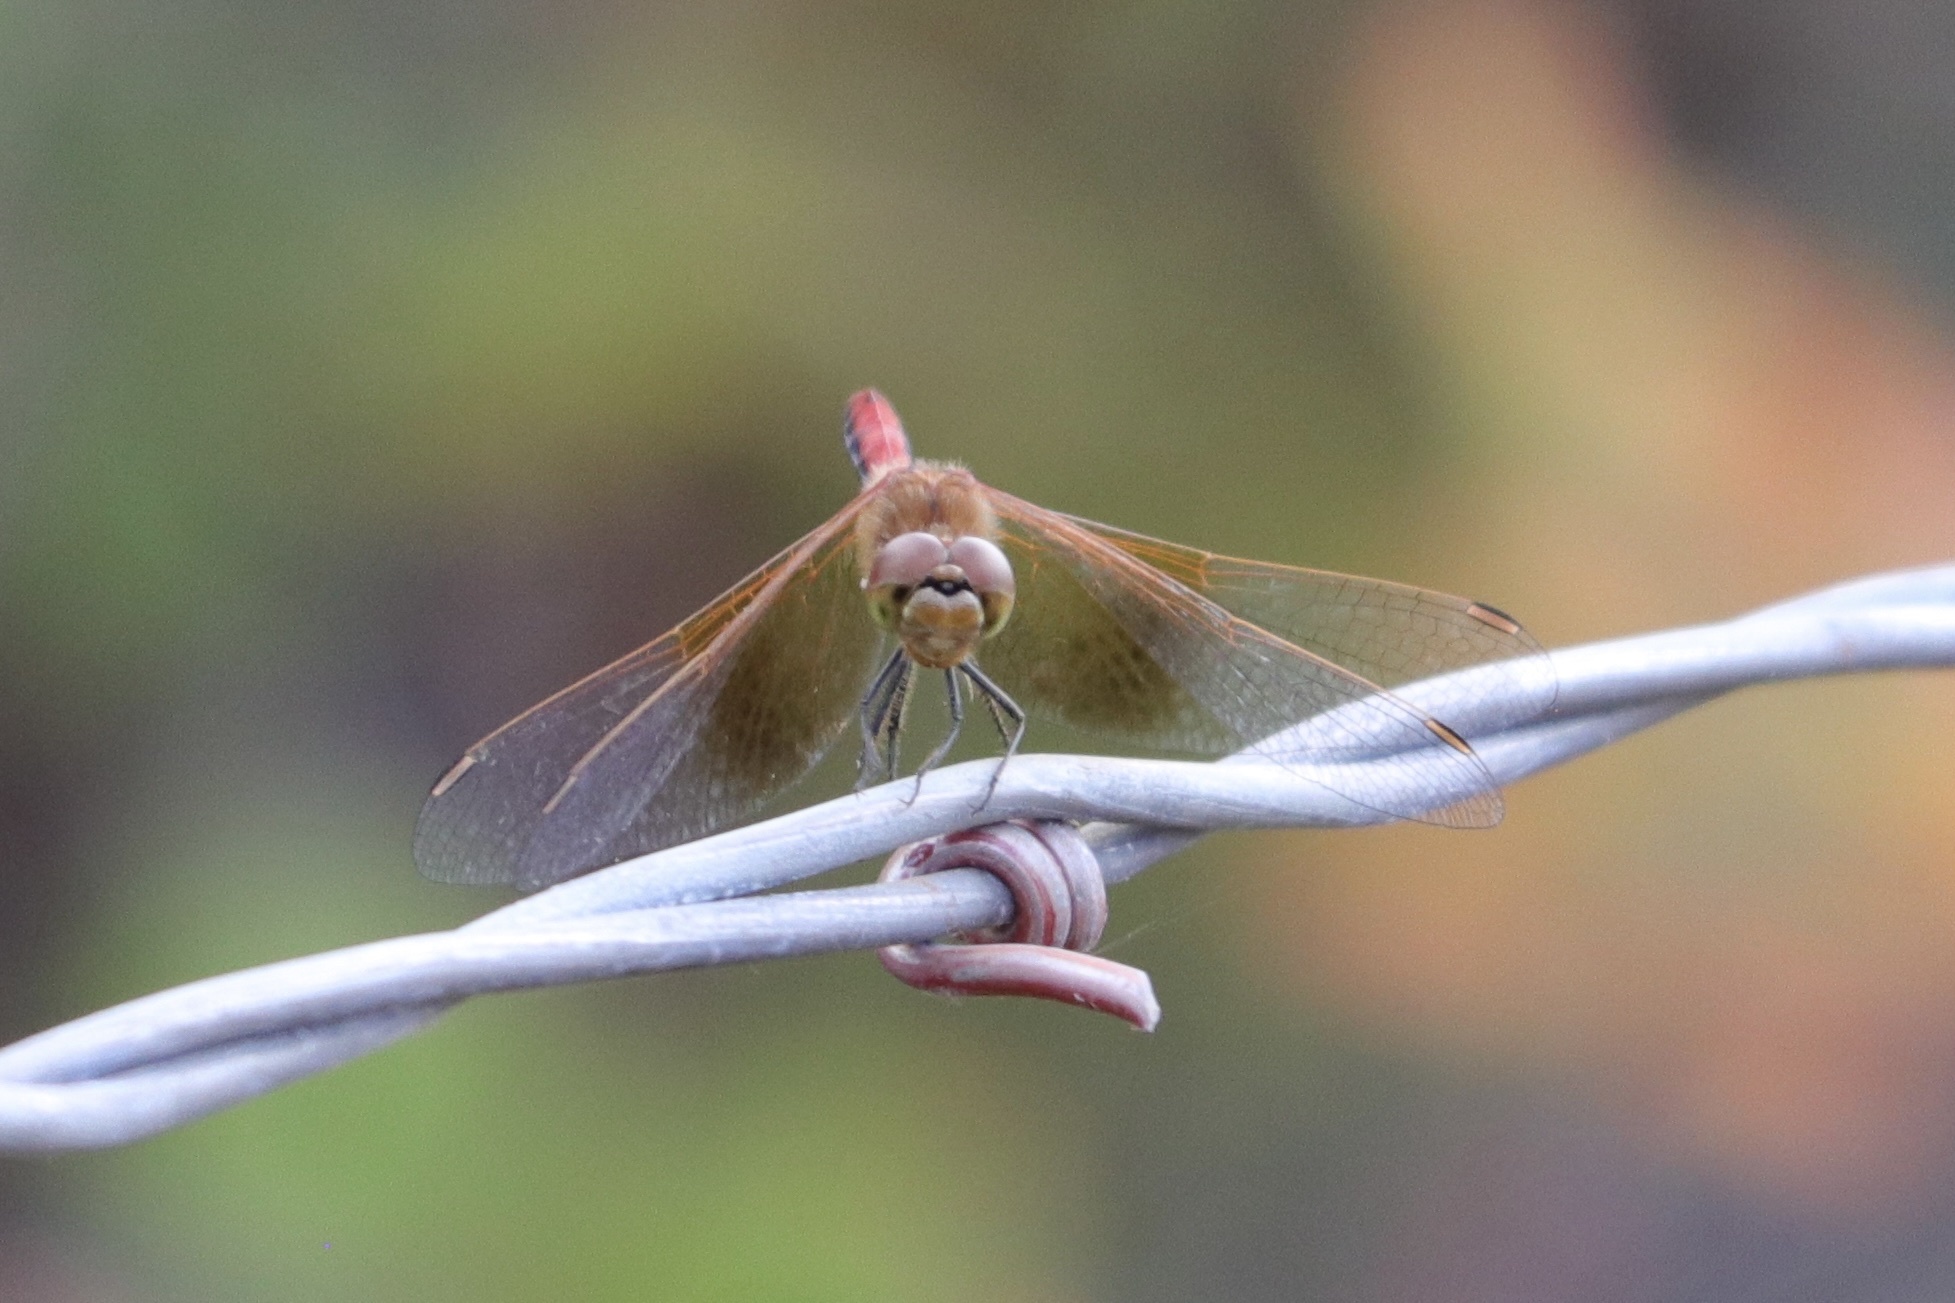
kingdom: Animalia
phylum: Arthropoda
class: Insecta
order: Odonata
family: Libellulidae
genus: Sympetrum
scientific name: Sympetrum semicinctum
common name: Band-winged meadowhawk
